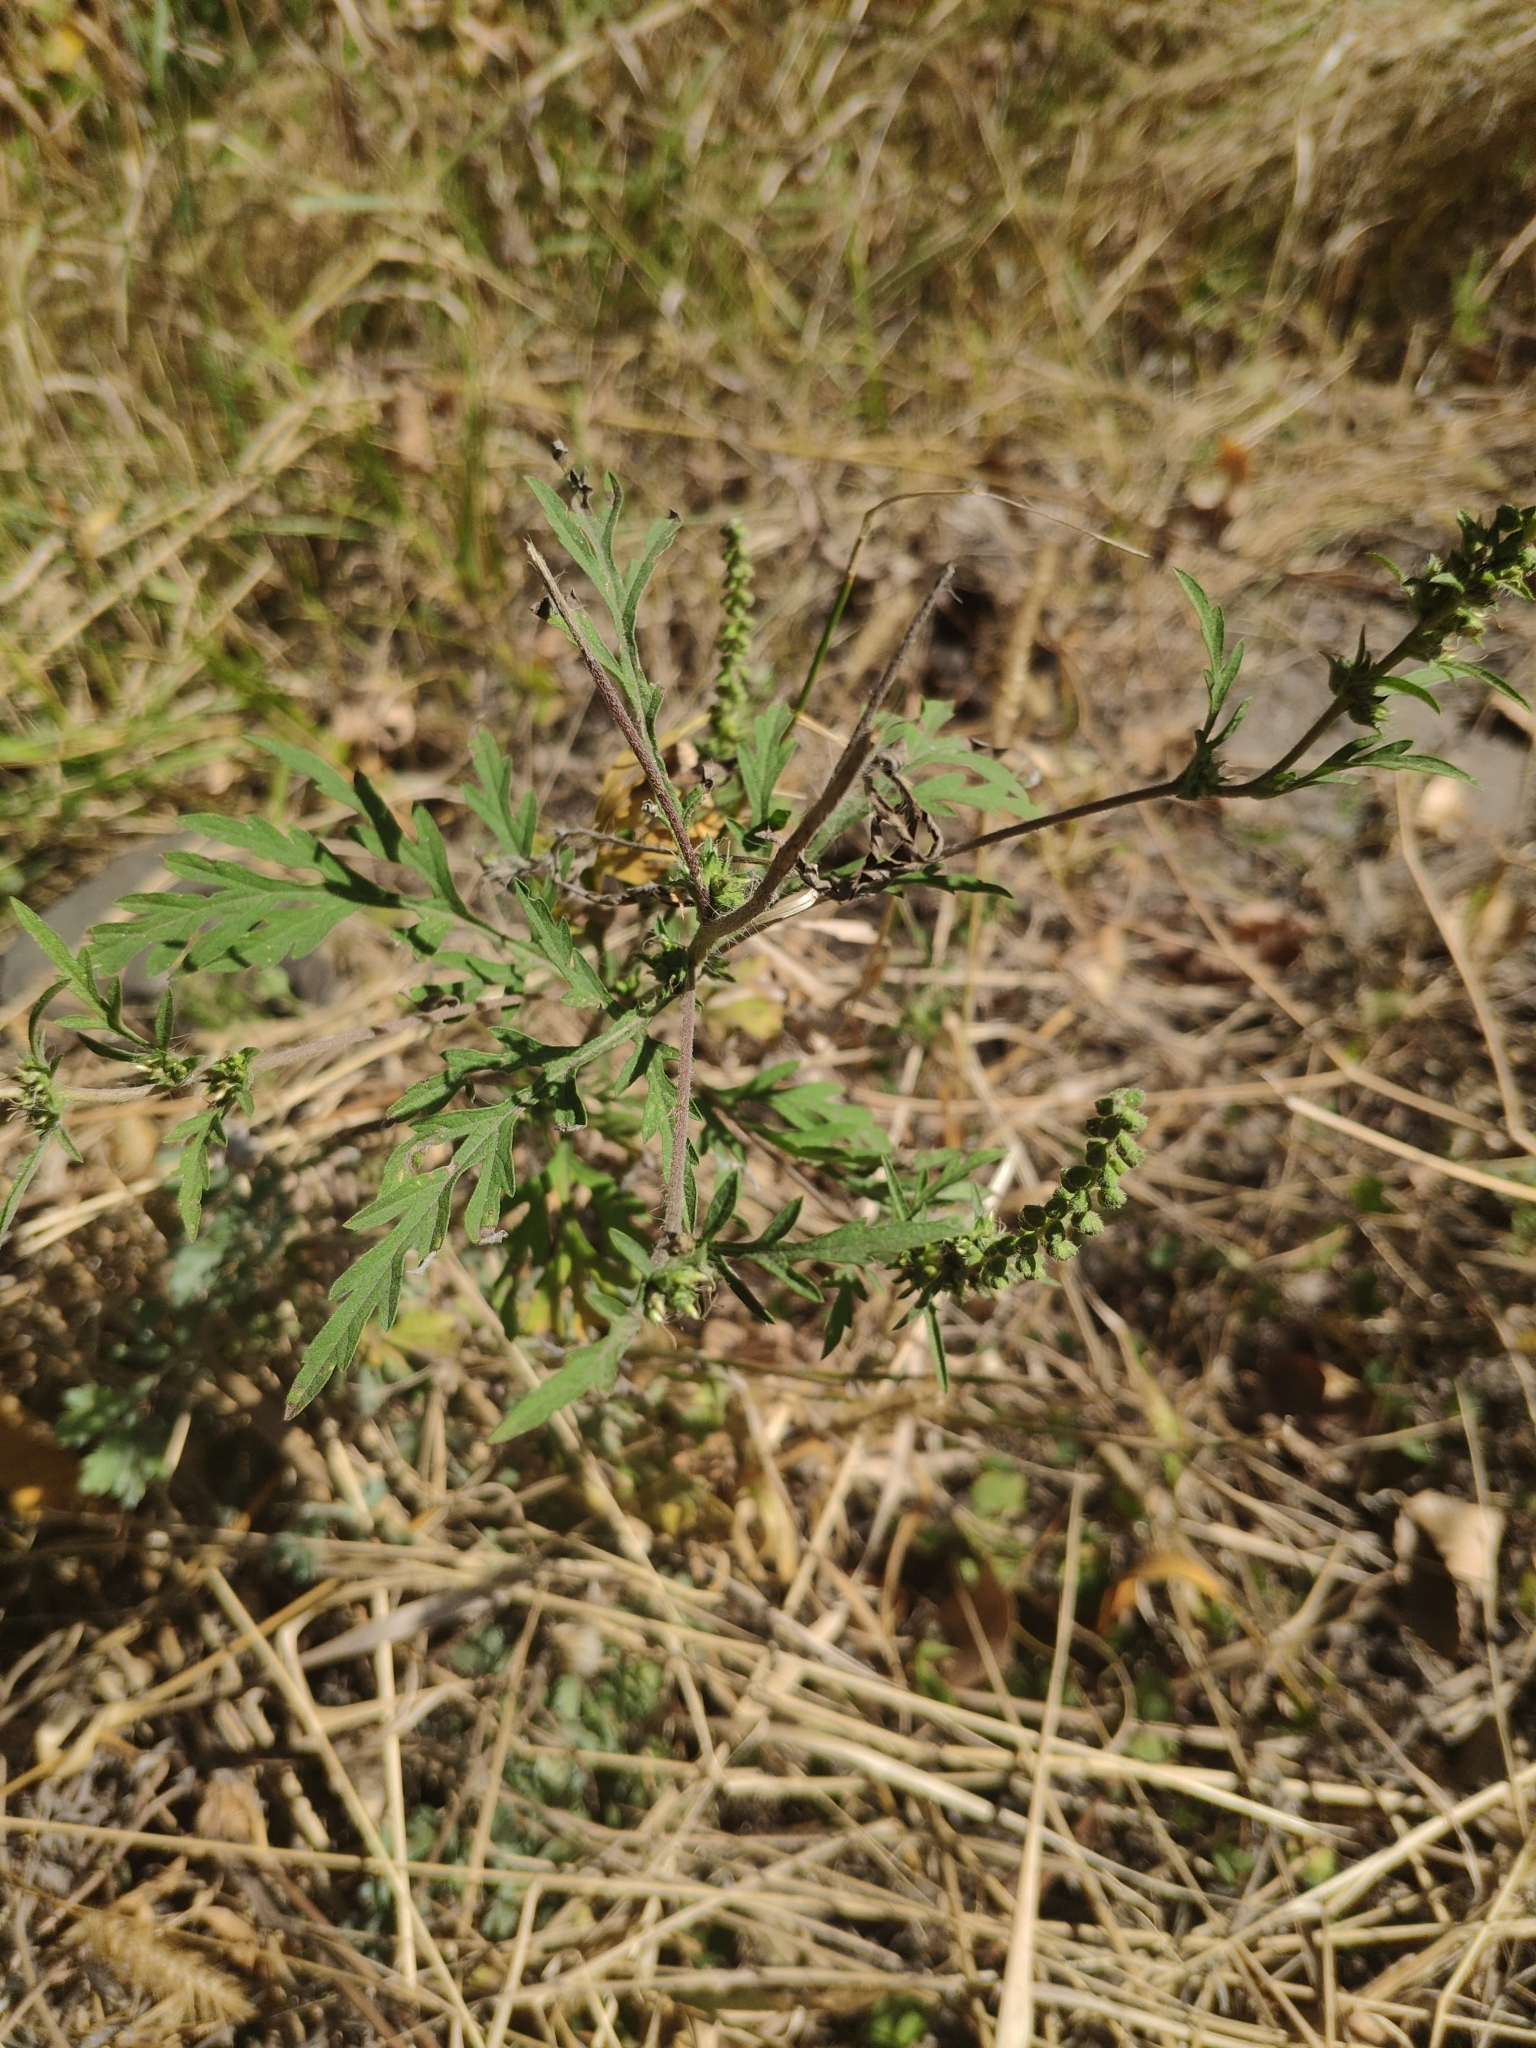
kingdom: Plantae
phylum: Tracheophyta
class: Magnoliopsida
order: Asterales
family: Asteraceae
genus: Ambrosia
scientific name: Ambrosia artemisiifolia
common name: Annual ragweed
